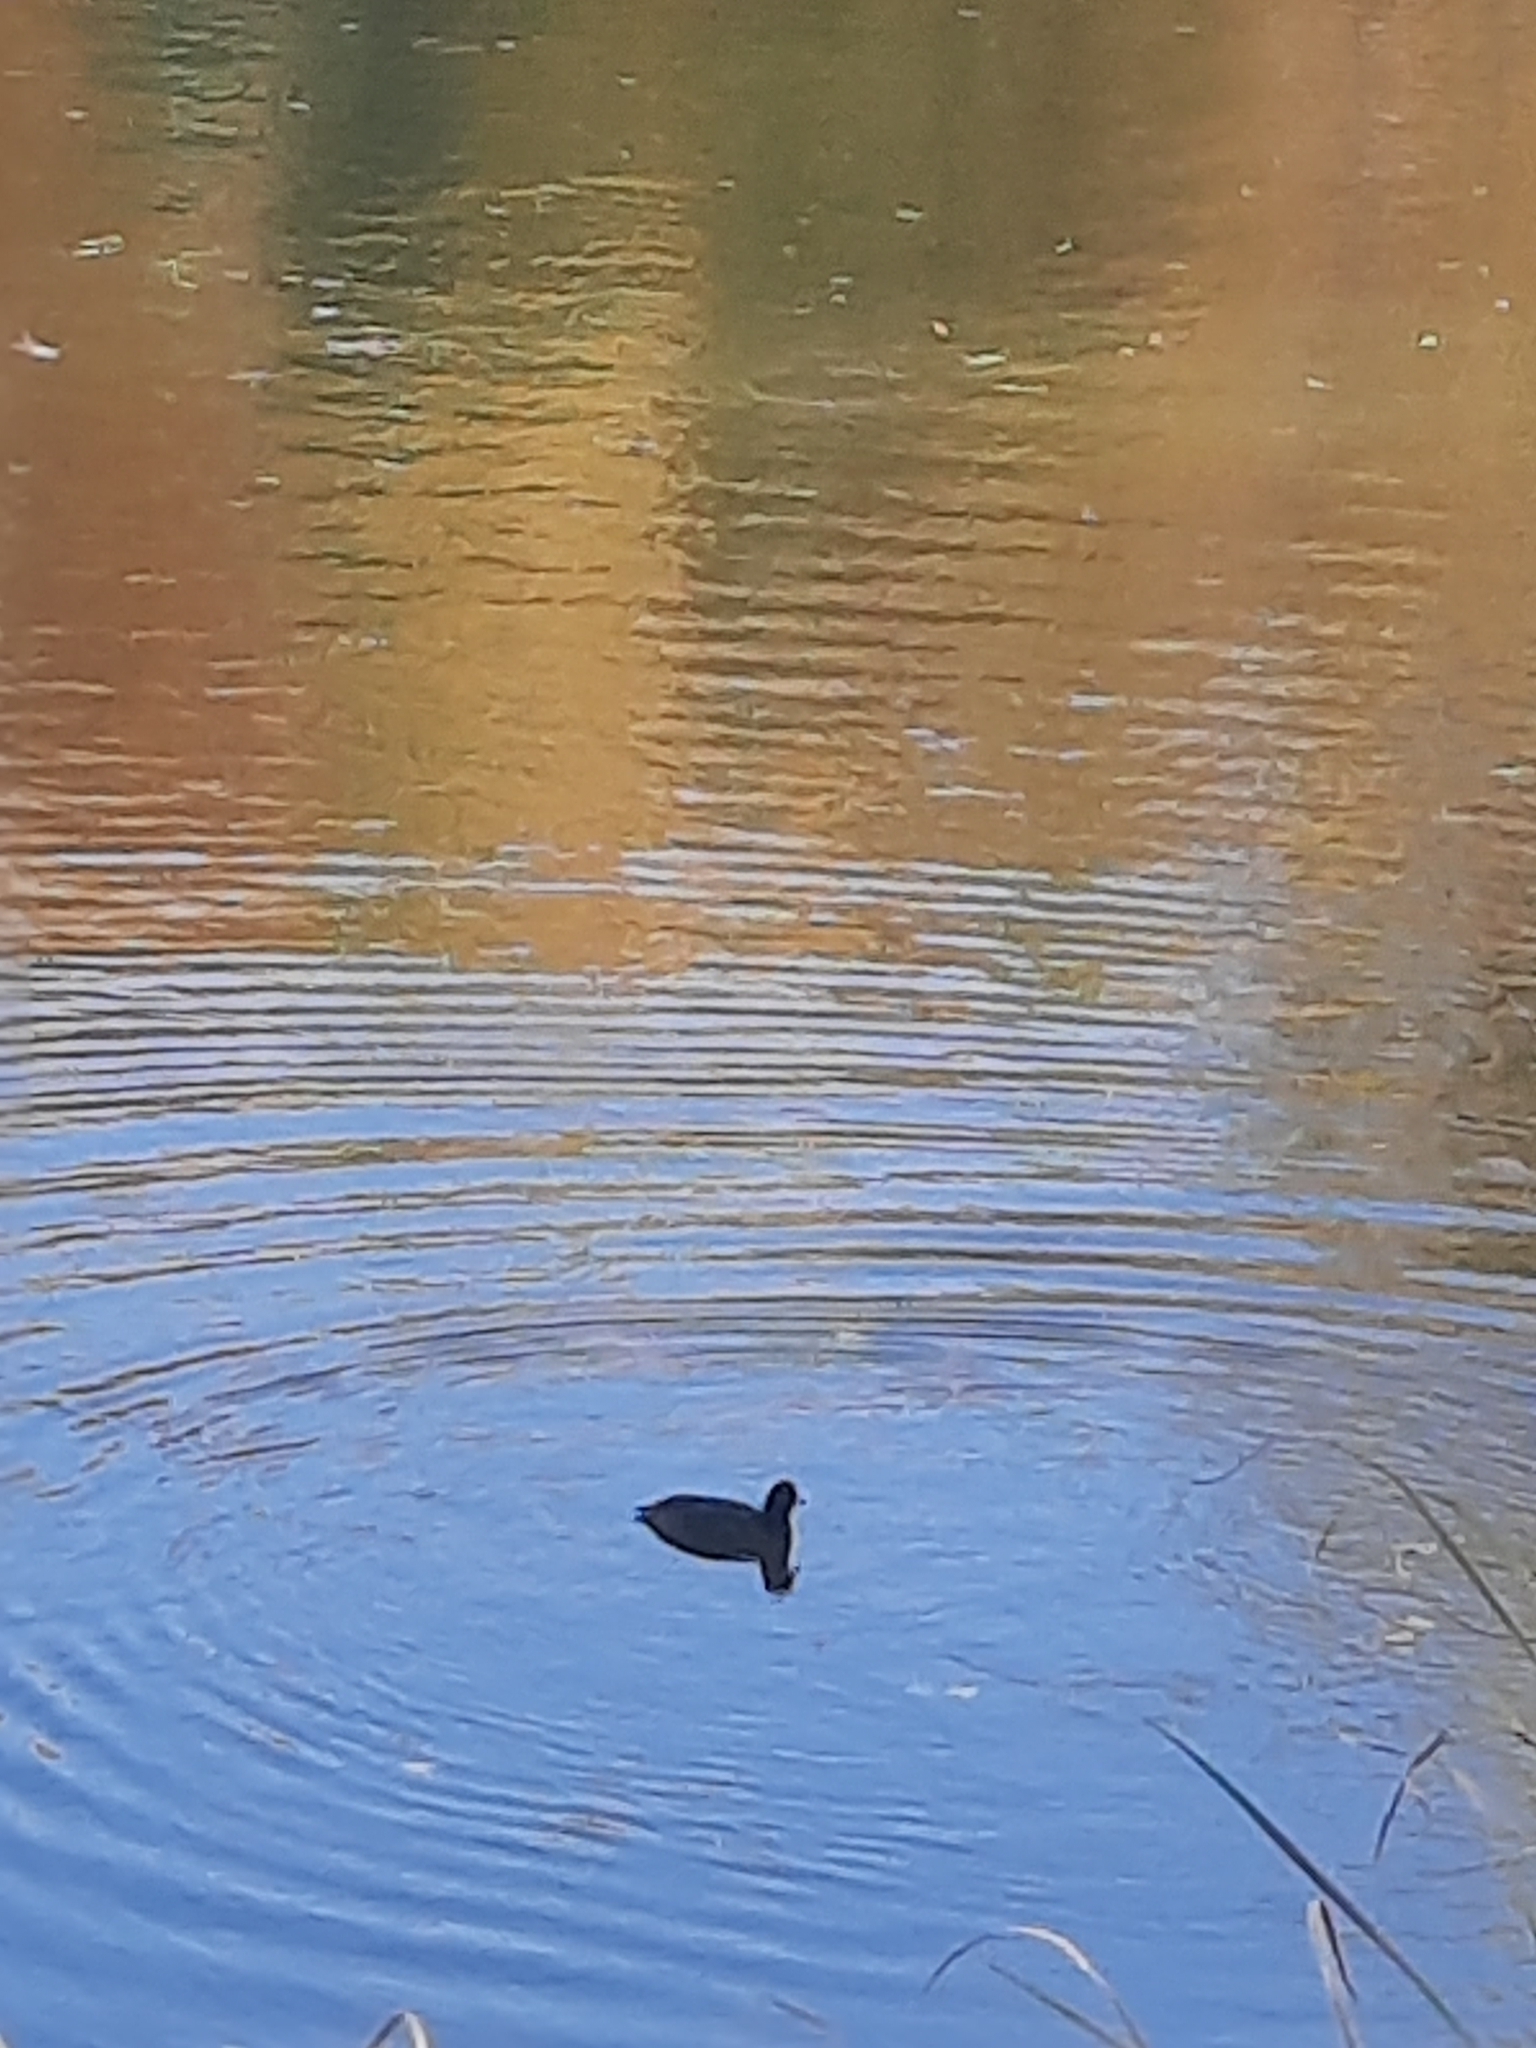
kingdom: Animalia
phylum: Chordata
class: Aves
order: Gruiformes
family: Rallidae
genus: Fulica
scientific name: Fulica atra
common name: Eurasian coot
